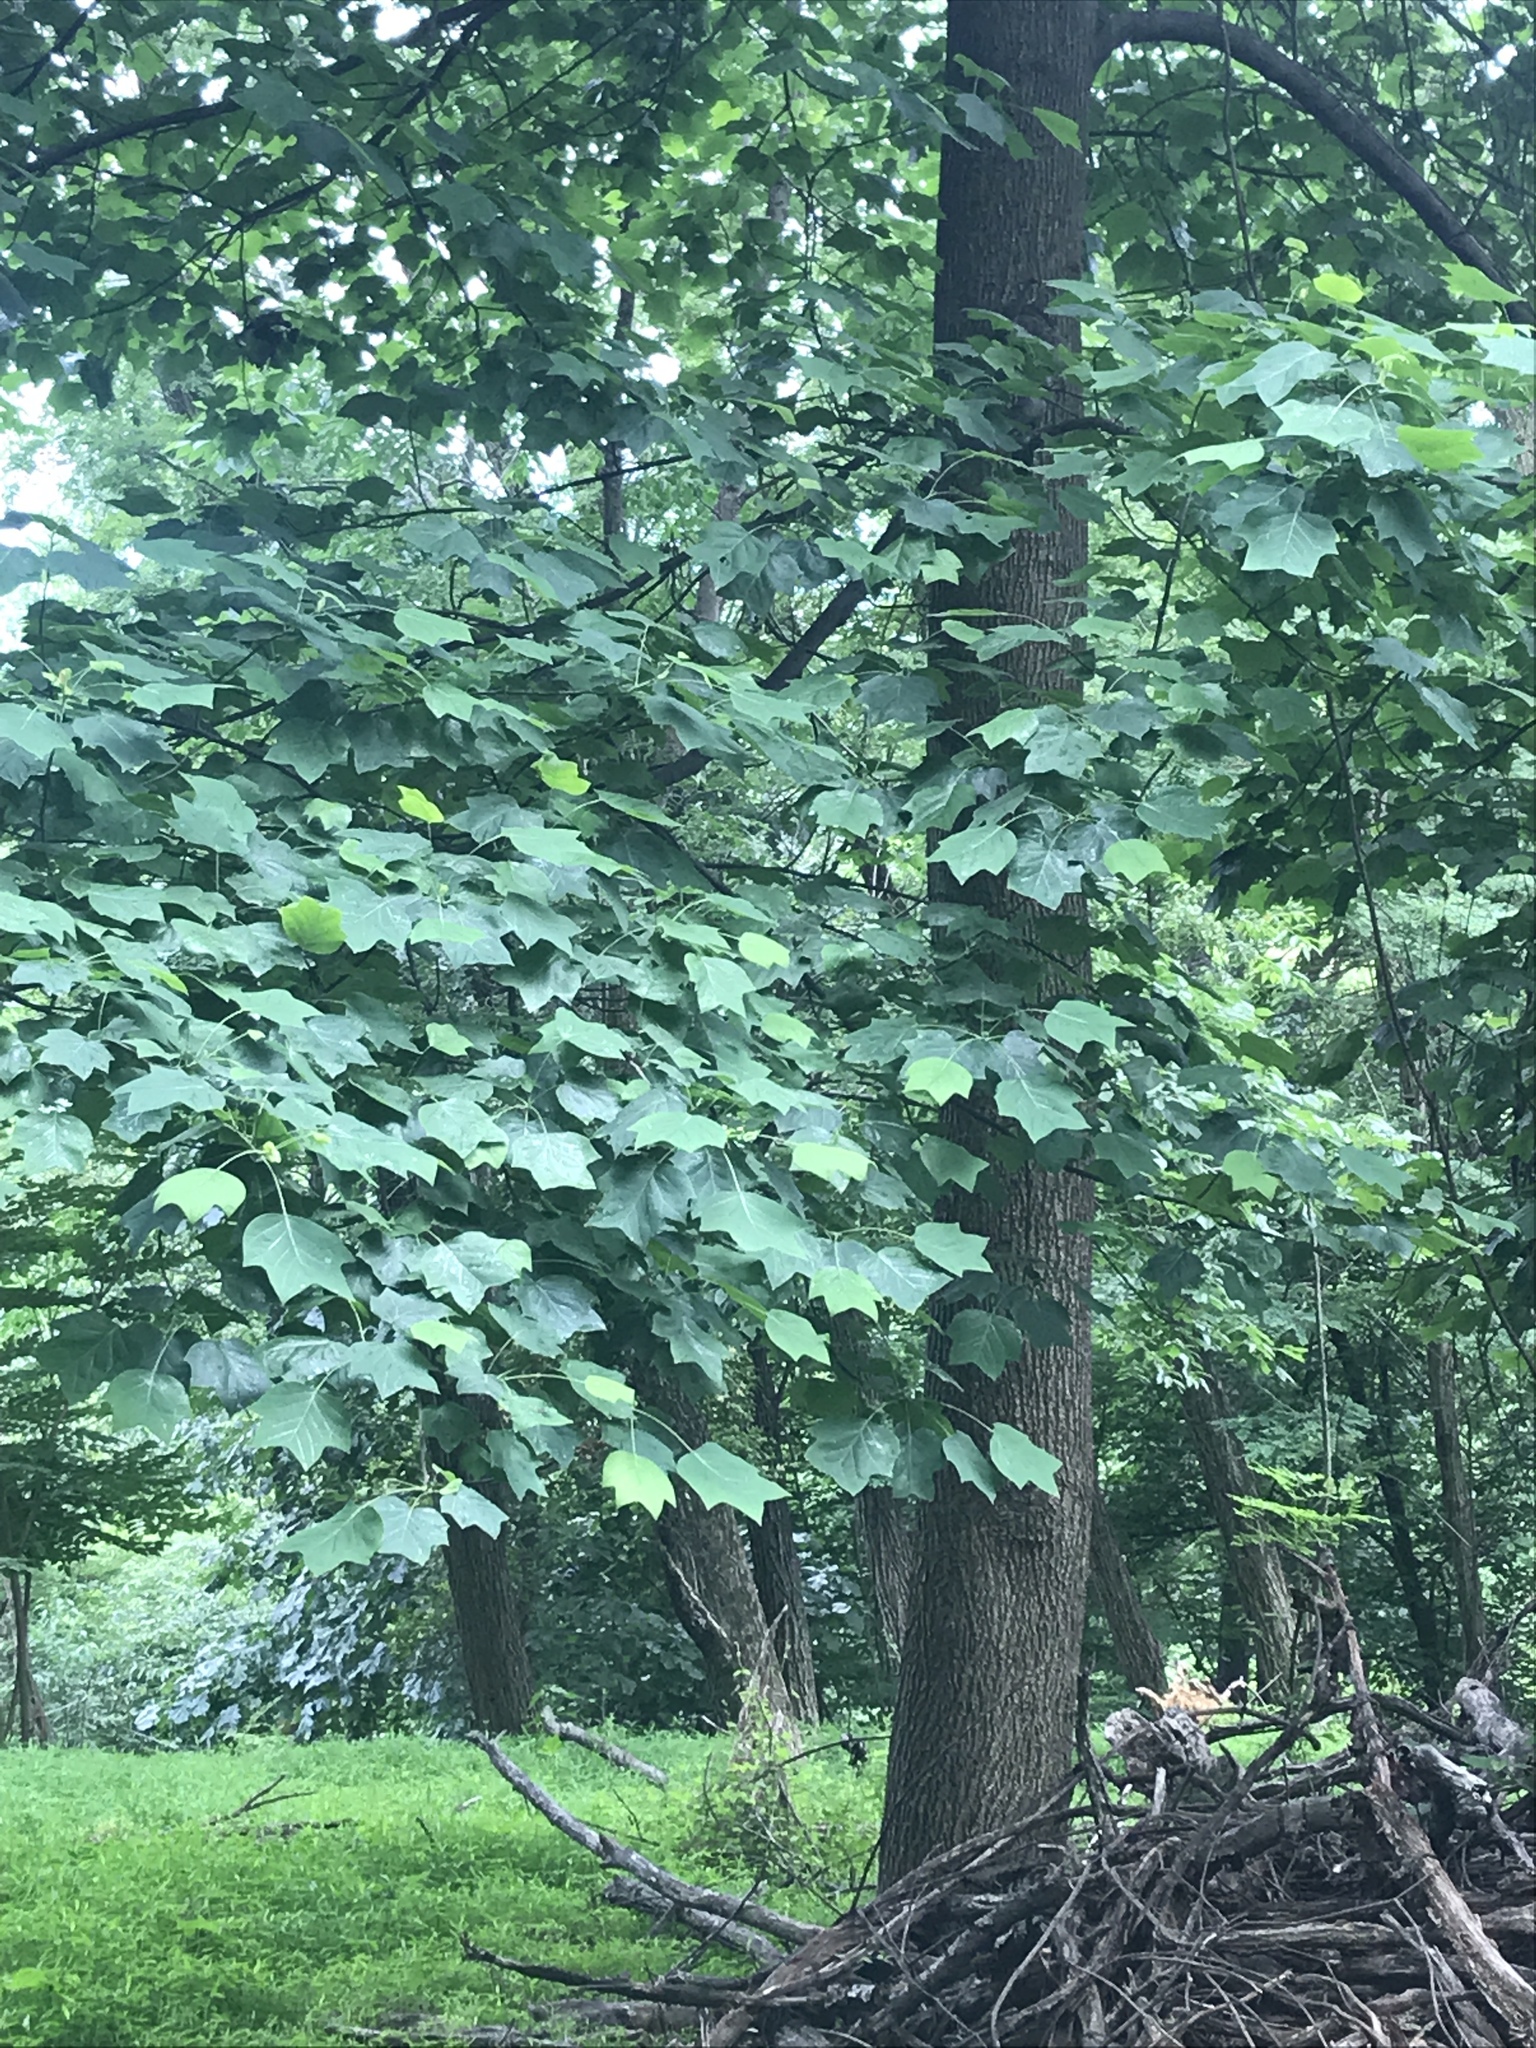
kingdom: Plantae
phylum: Tracheophyta
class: Magnoliopsida
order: Magnoliales
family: Magnoliaceae
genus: Liriodendron
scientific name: Liriodendron tulipifera
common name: Tulip tree
